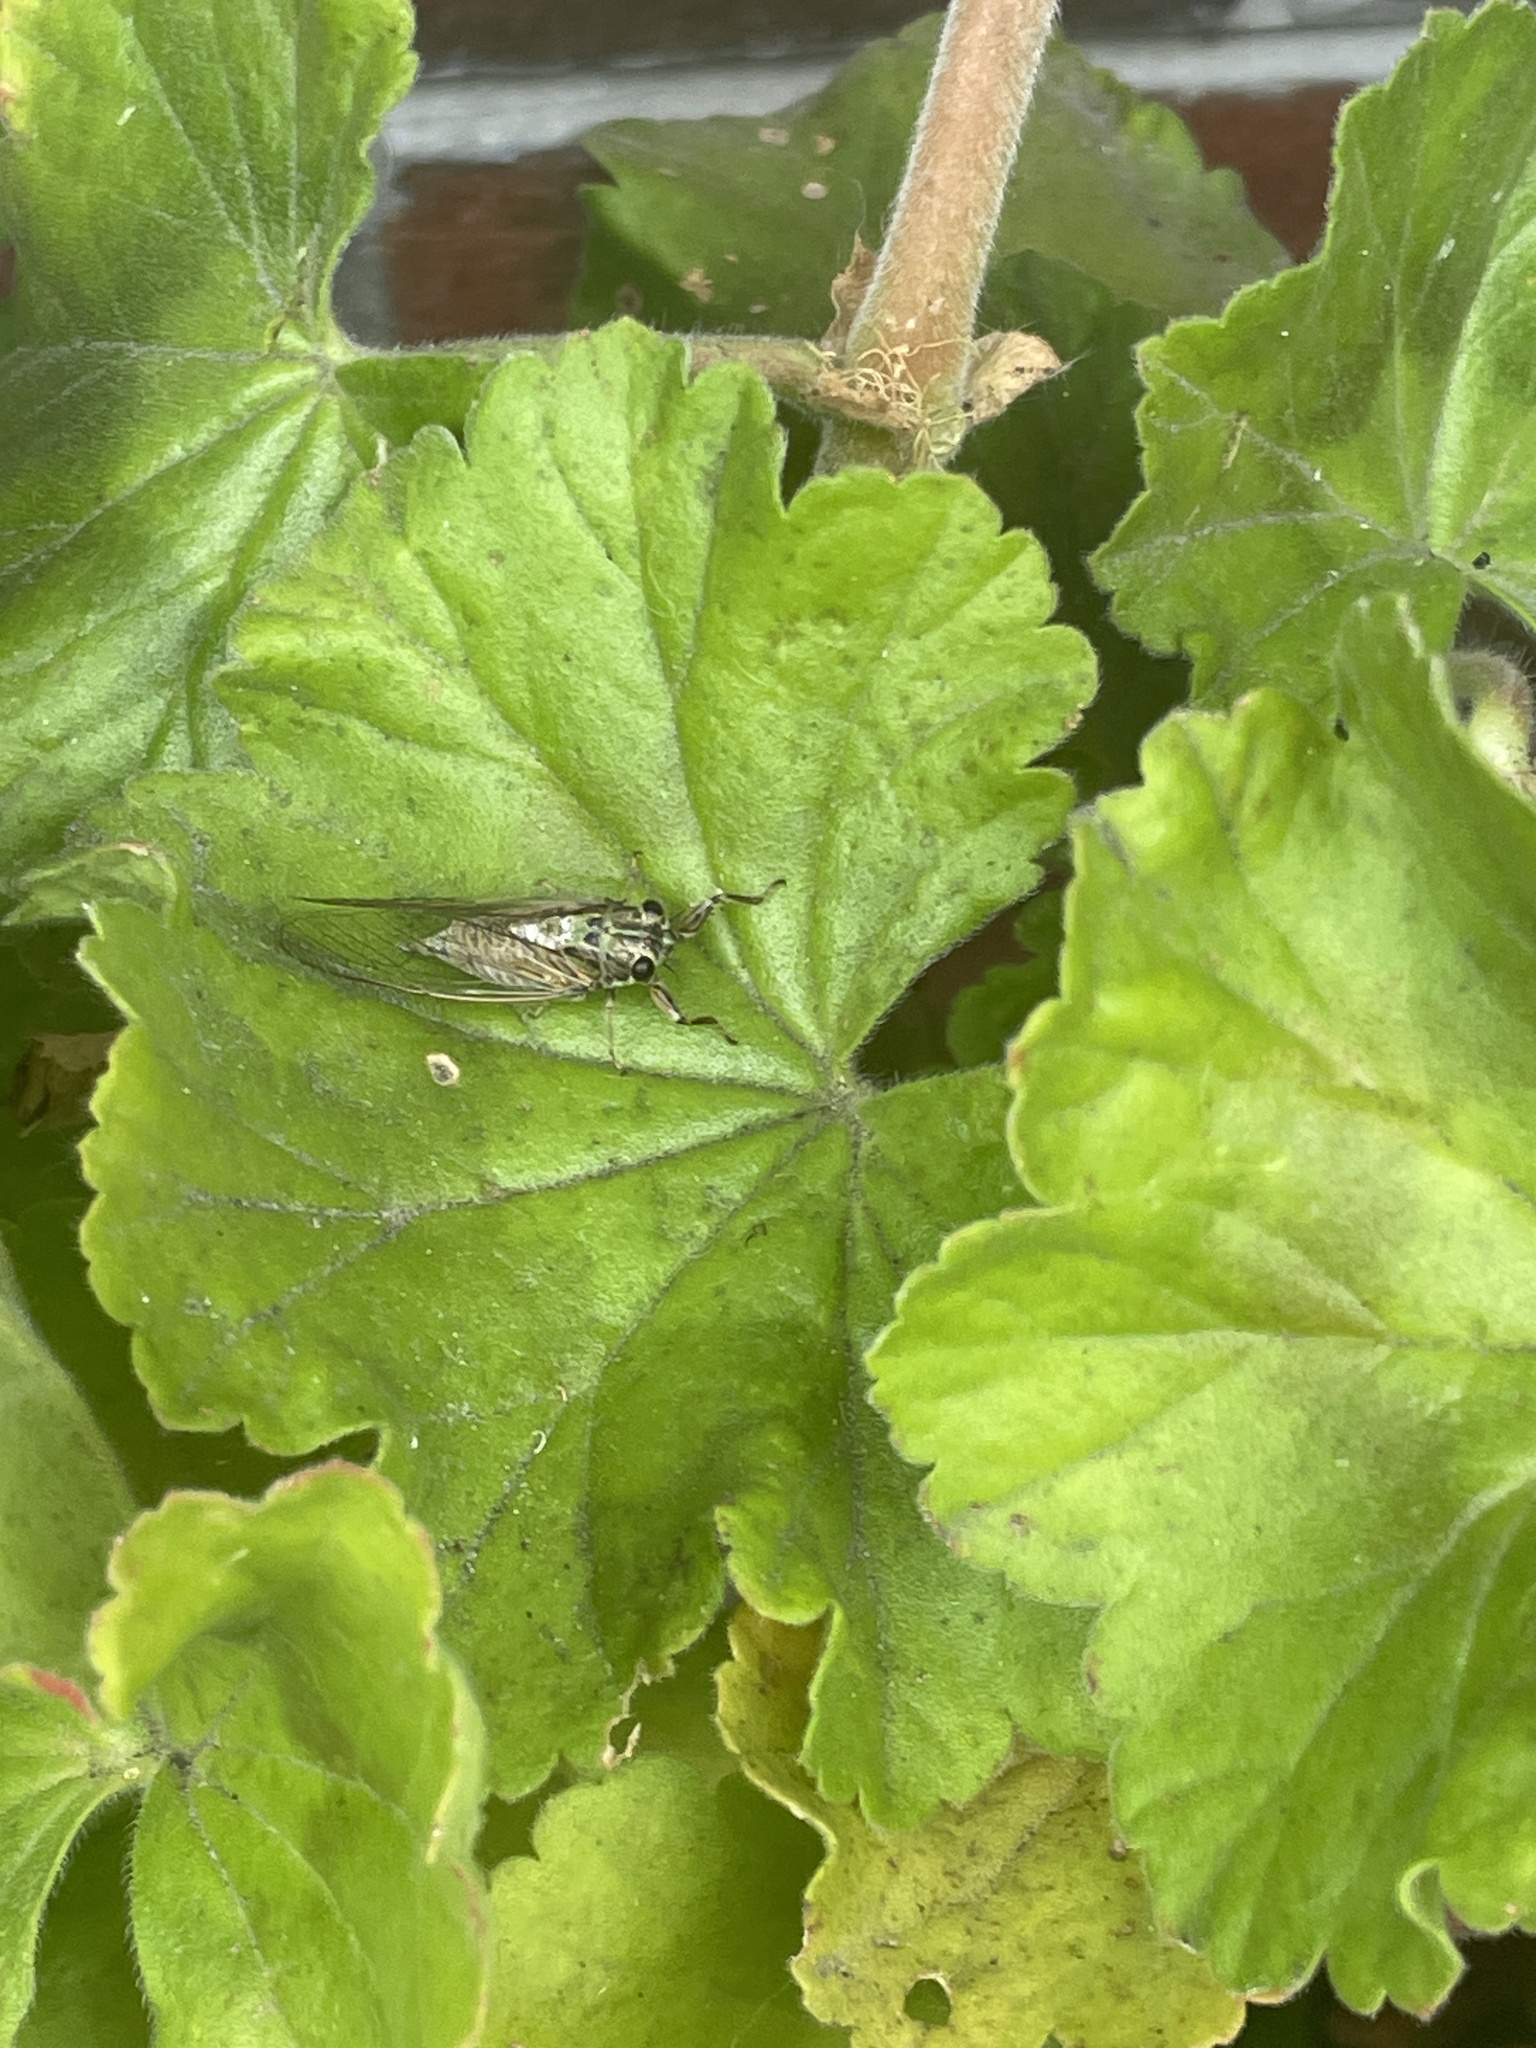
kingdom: Animalia
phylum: Arthropoda
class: Insecta
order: Hemiptera
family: Cicadidae
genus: Yoyetta
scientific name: Yoyetta celis
